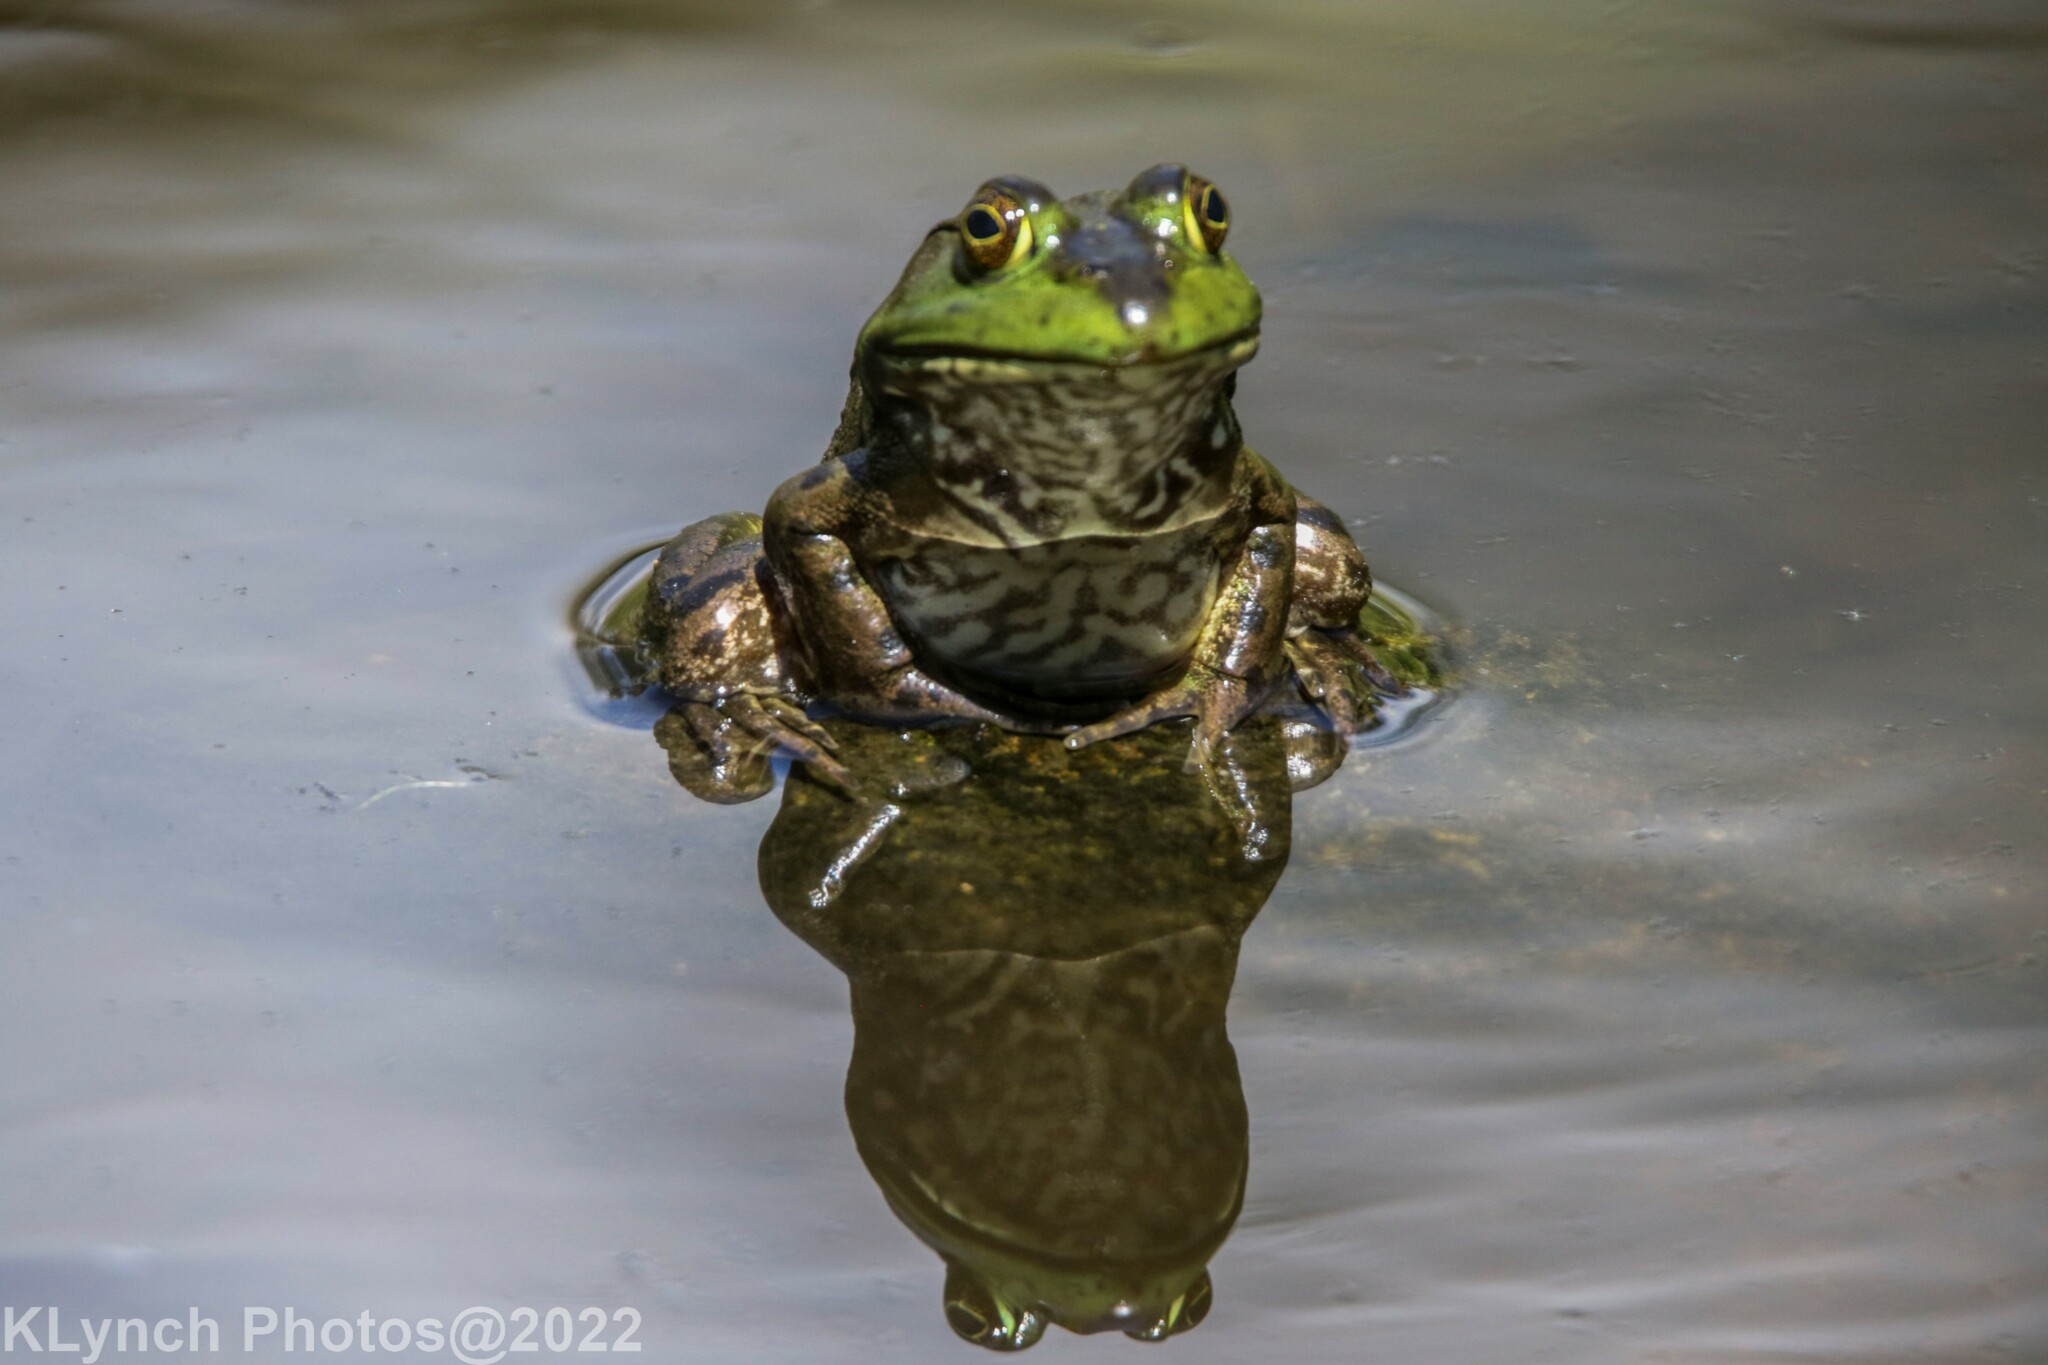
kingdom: Animalia
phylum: Chordata
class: Amphibia
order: Anura
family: Ranidae
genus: Lithobates
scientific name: Lithobates catesbeianus
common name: American bullfrog
